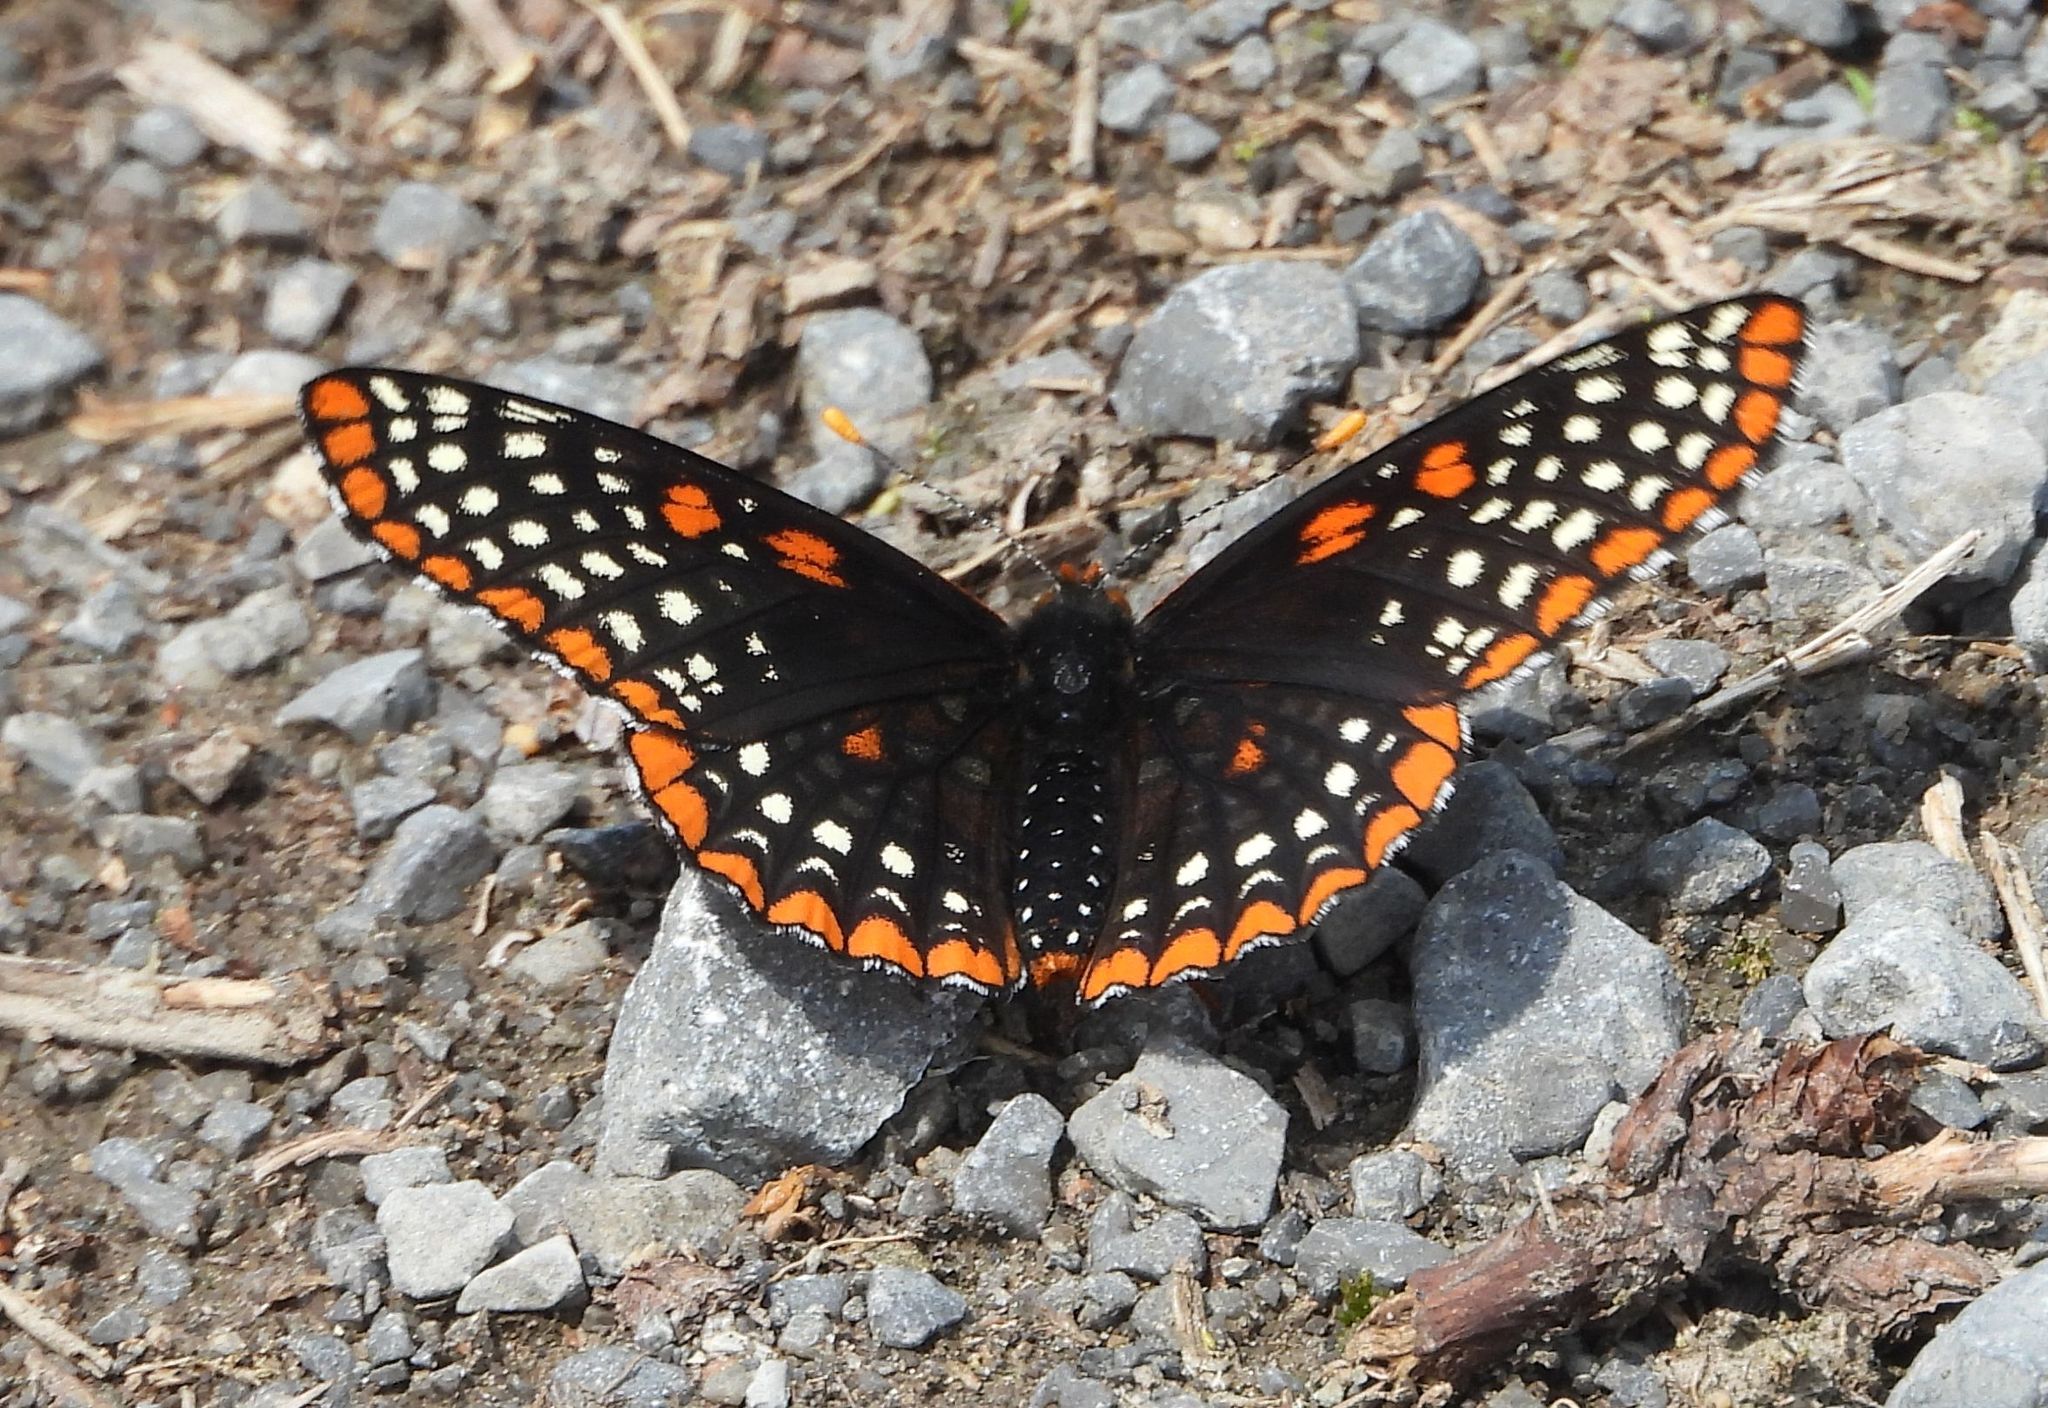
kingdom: Animalia
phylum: Arthropoda
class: Insecta
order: Lepidoptera
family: Nymphalidae
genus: Euphydryas
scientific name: Euphydryas phaeton
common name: Baltimore checkerspot
